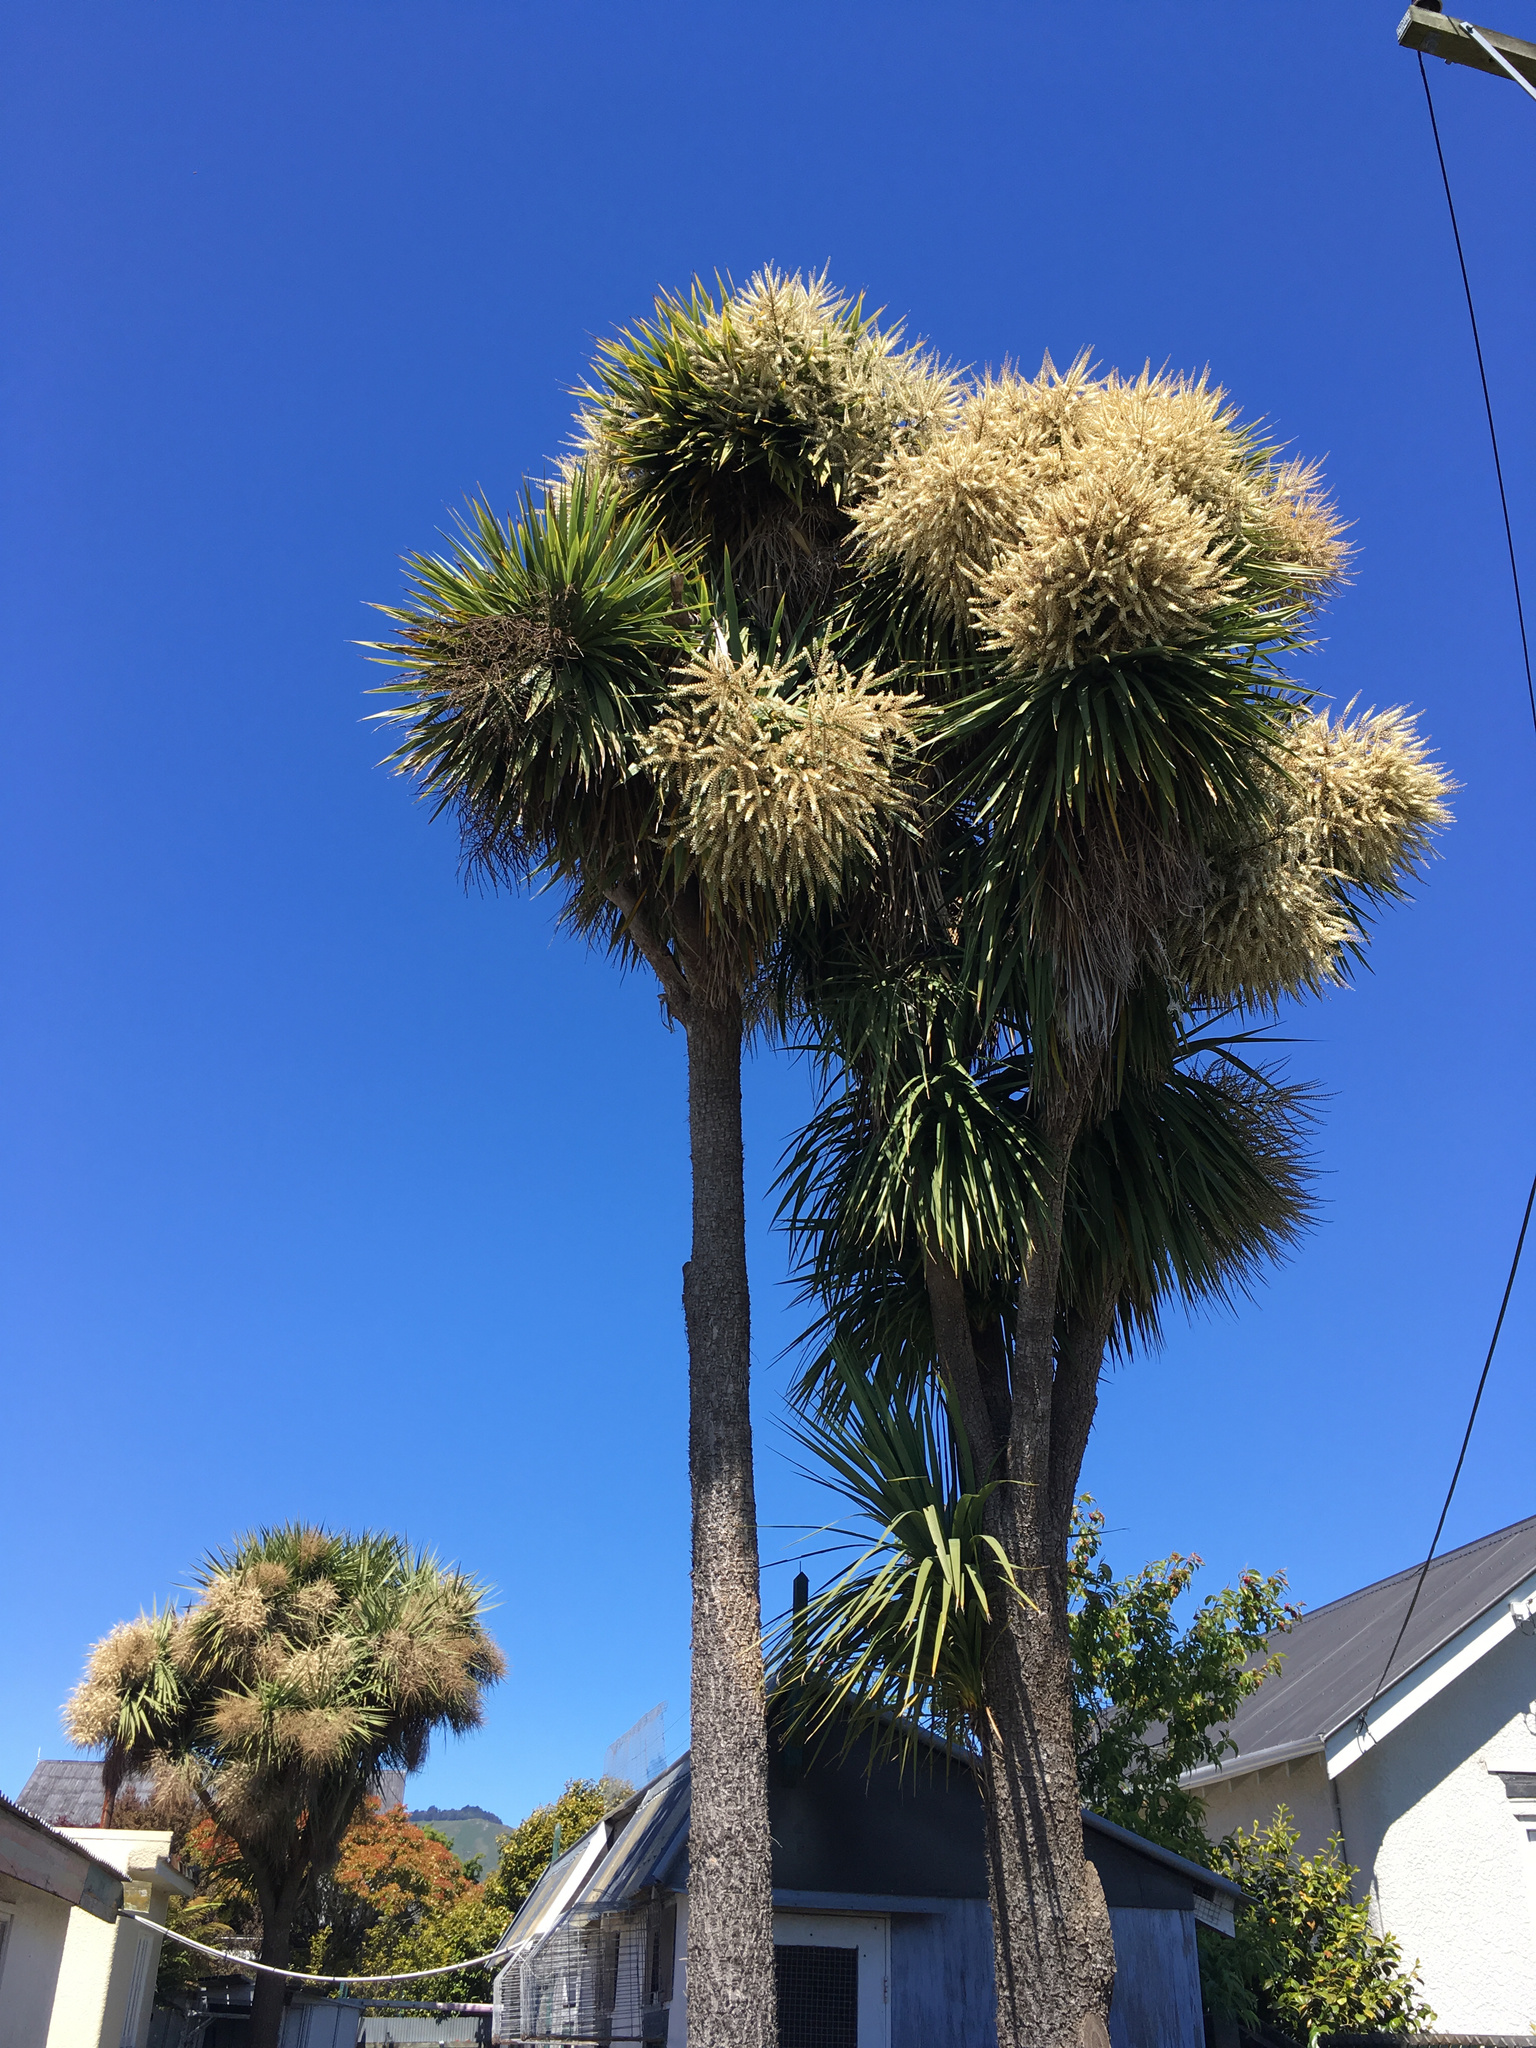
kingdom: Plantae
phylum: Tracheophyta
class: Liliopsida
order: Asparagales
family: Asparagaceae
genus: Cordyline
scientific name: Cordyline australis
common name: Cabbage-palm
